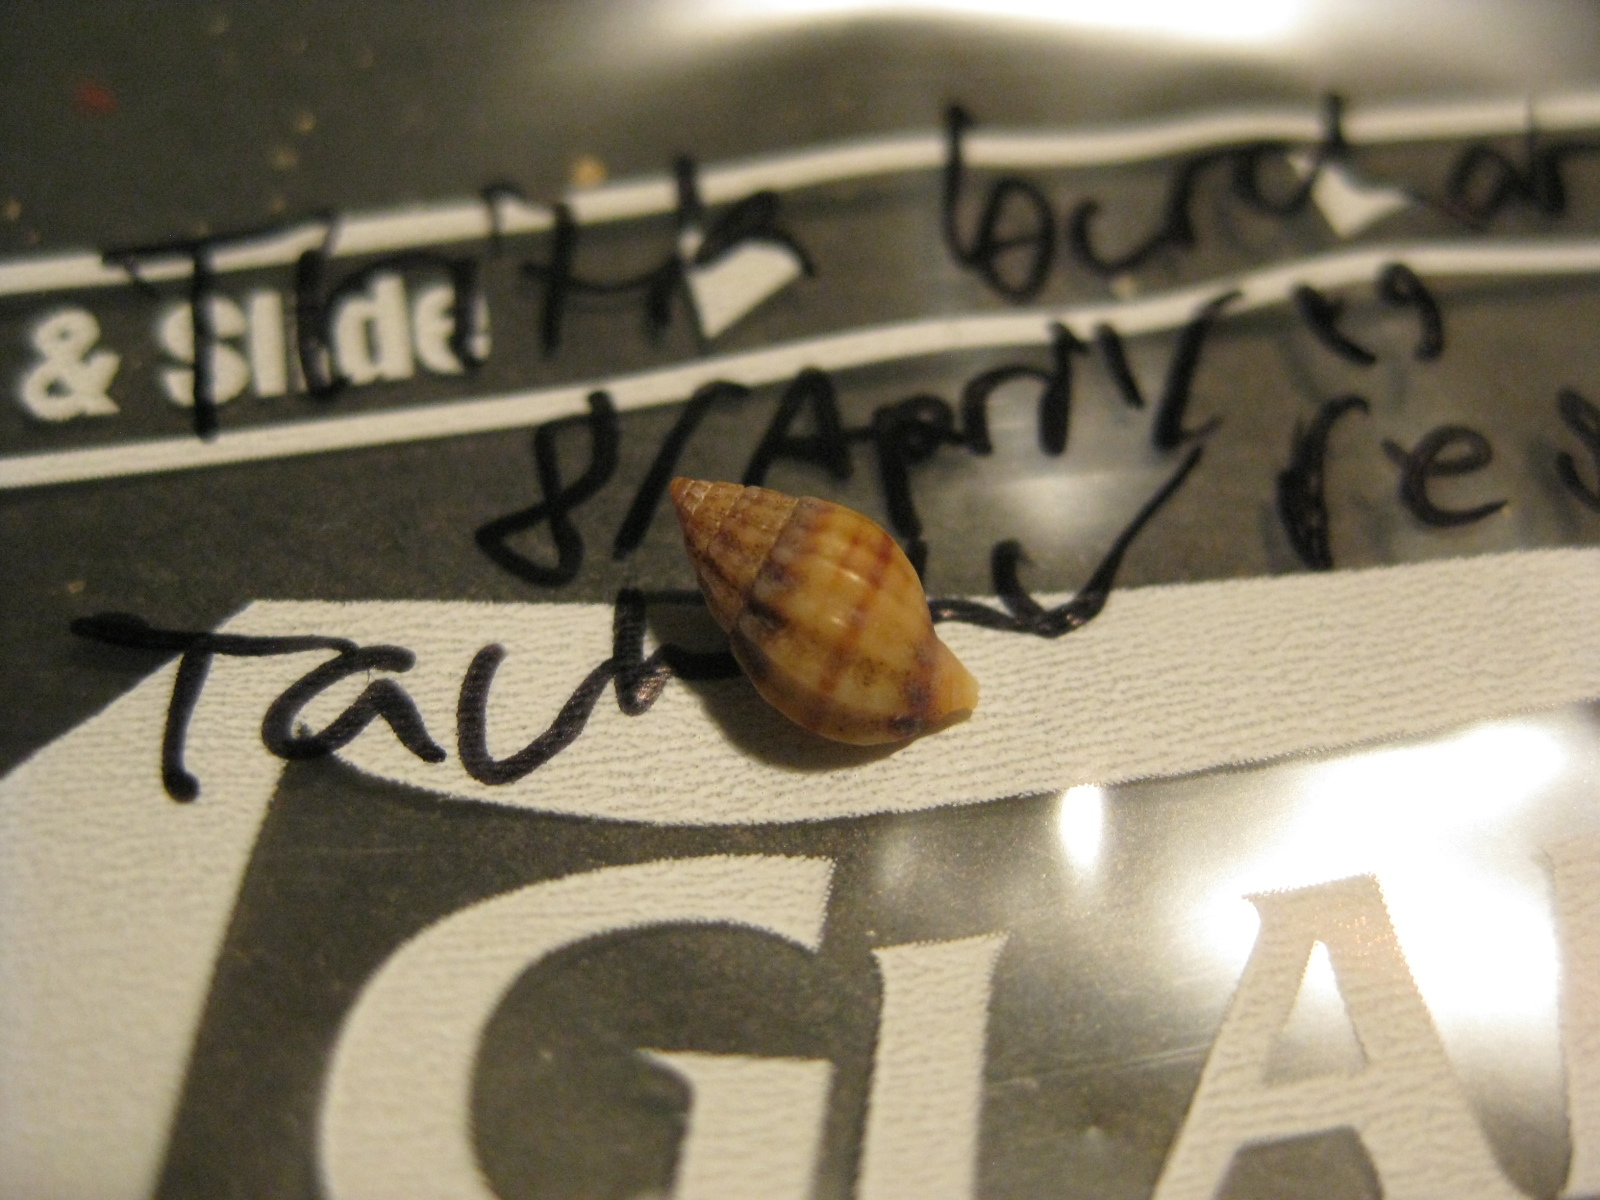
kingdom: Animalia
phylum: Mollusca
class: Gastropoda
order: Neogastropoda
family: Nassariidae
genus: Tritia
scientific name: Tritia burchardi
